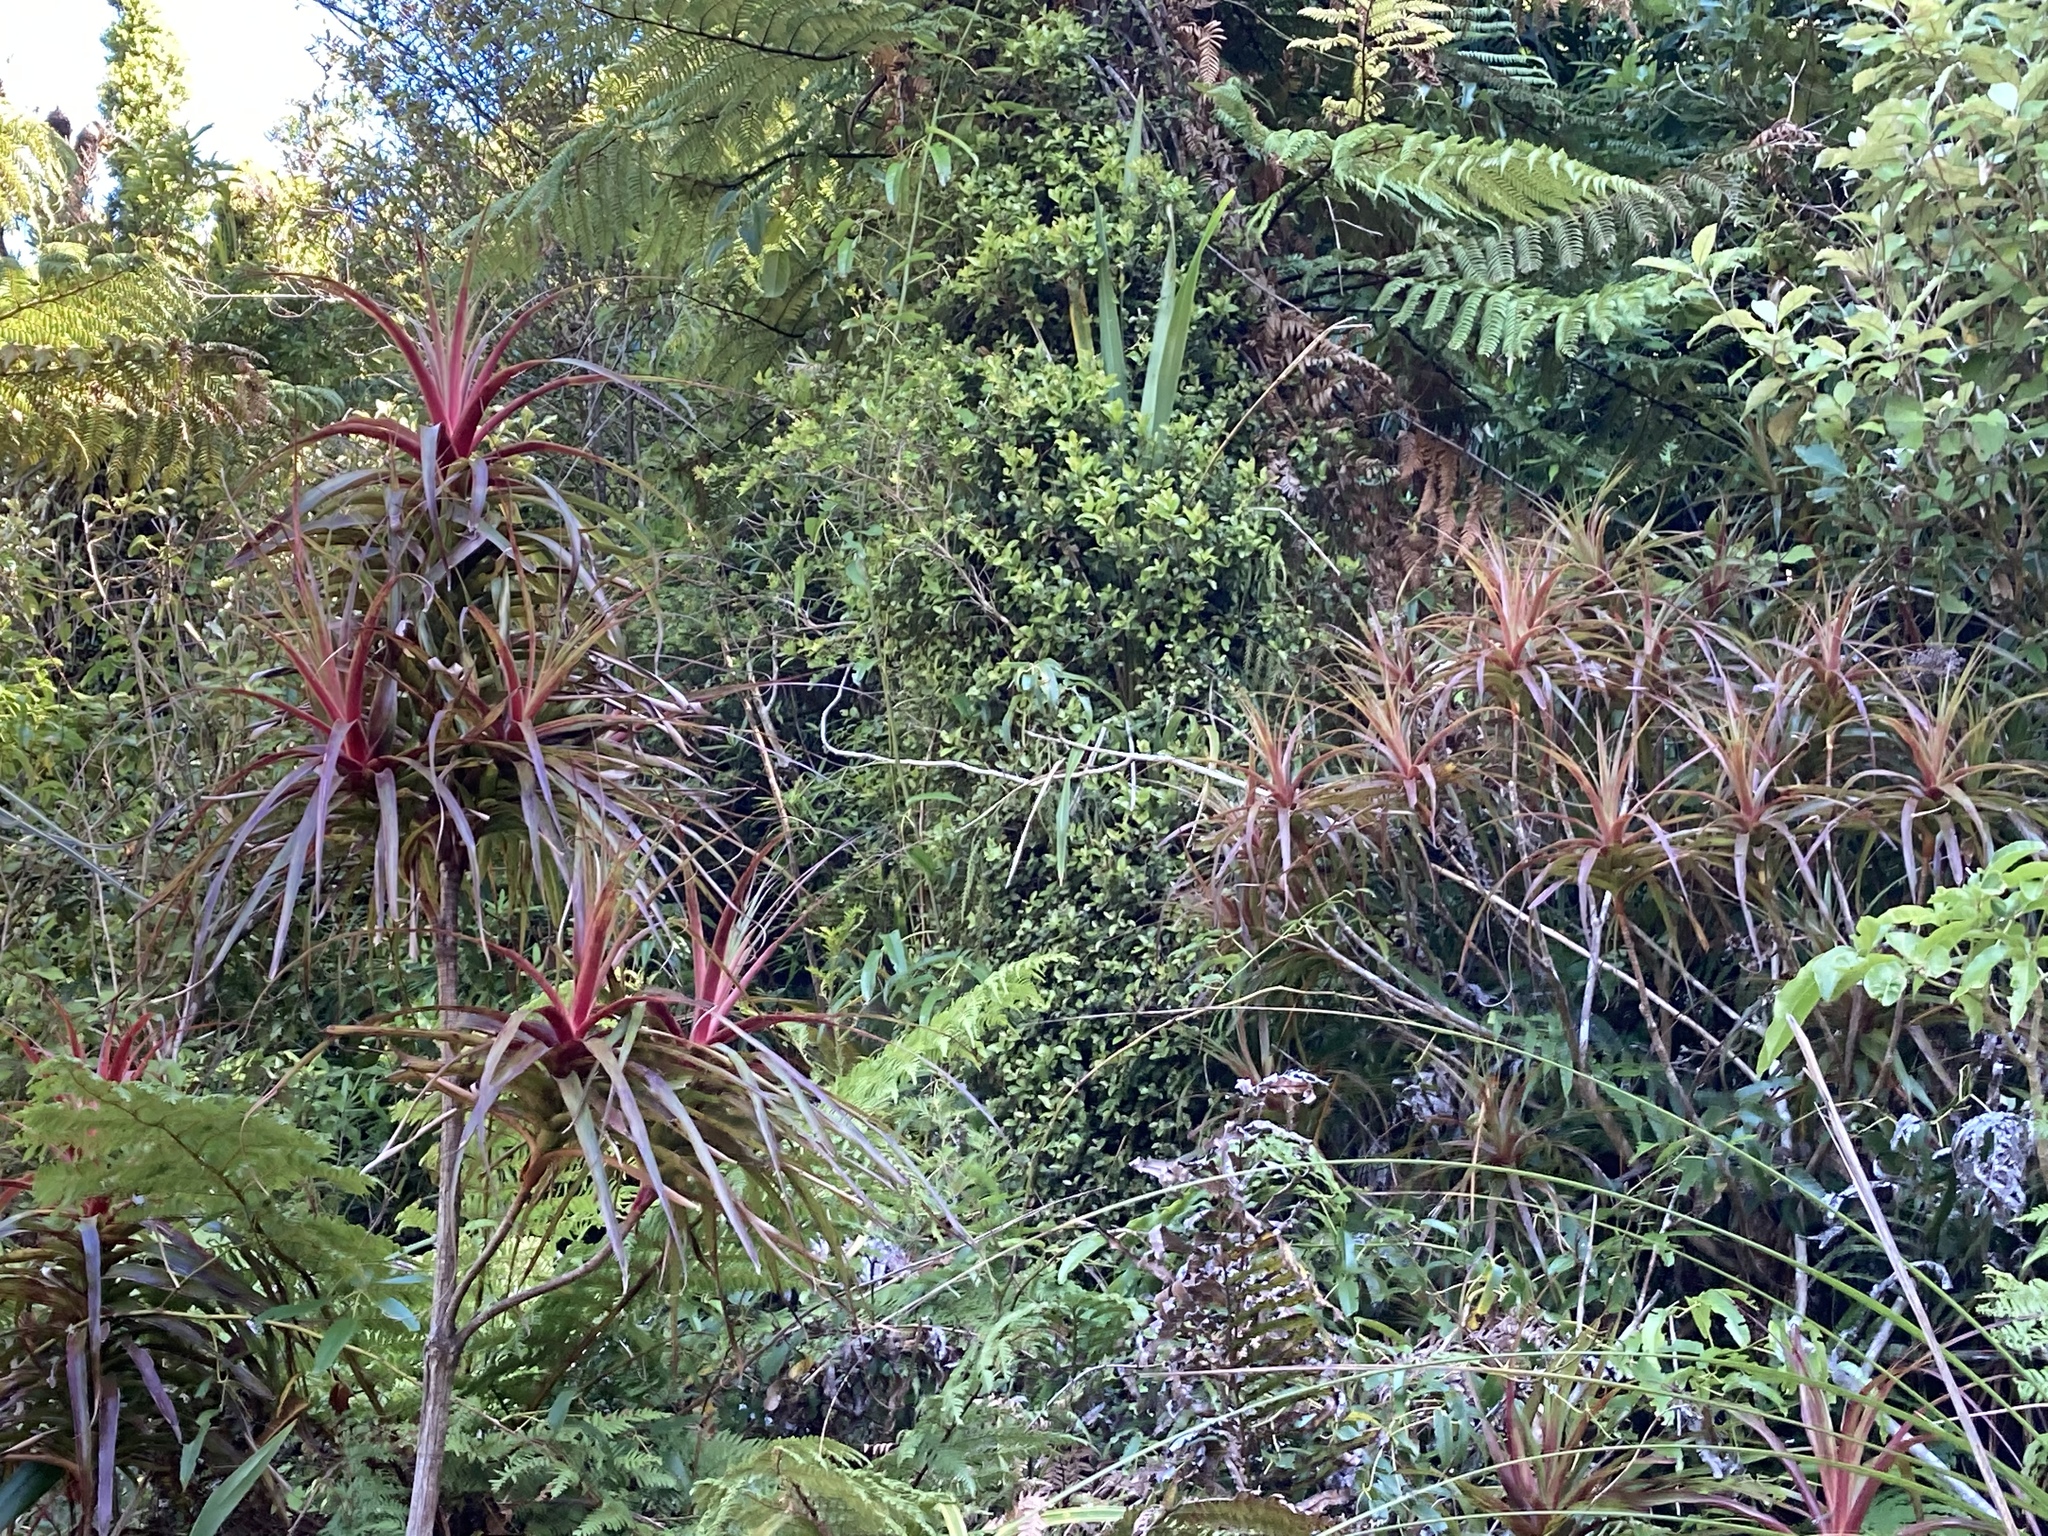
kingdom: Plantae
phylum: Tracheophyta
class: Magnoliopsida
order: Ericales
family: Ericaceae
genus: Dracophyllum
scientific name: Dracophyllum latifolium
